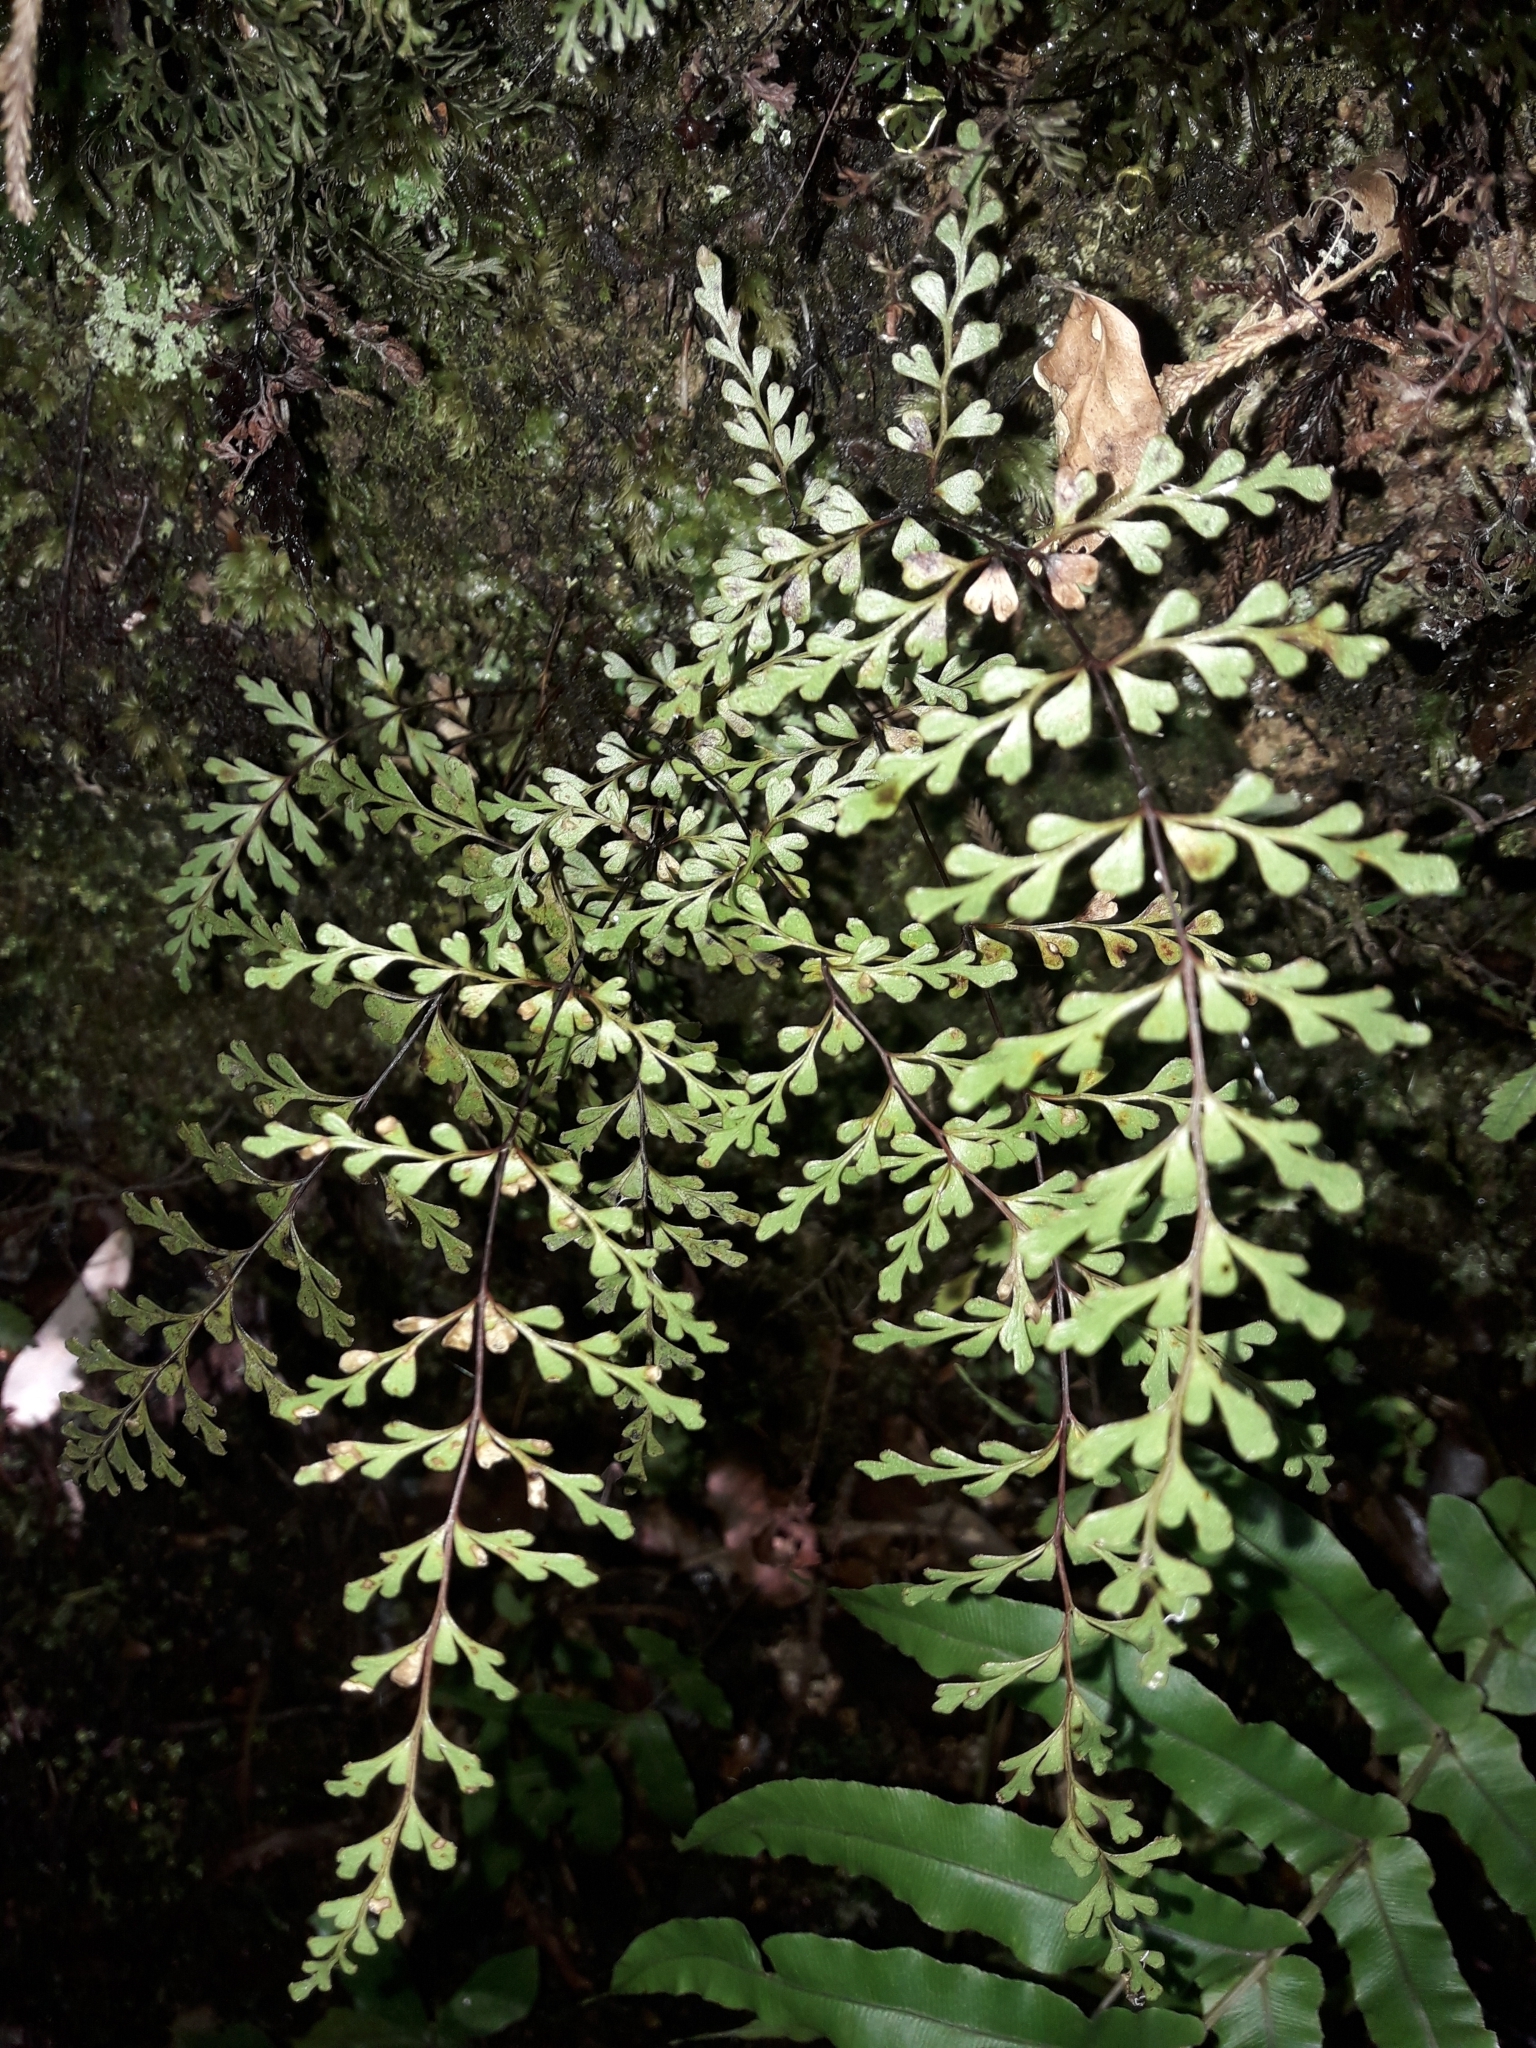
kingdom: Plantae
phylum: Tracheophyta
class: Polypodiopsida
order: Polypodiales
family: Lindsaeaceae
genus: Lindsaea
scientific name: Lindsaea trichomanoides
